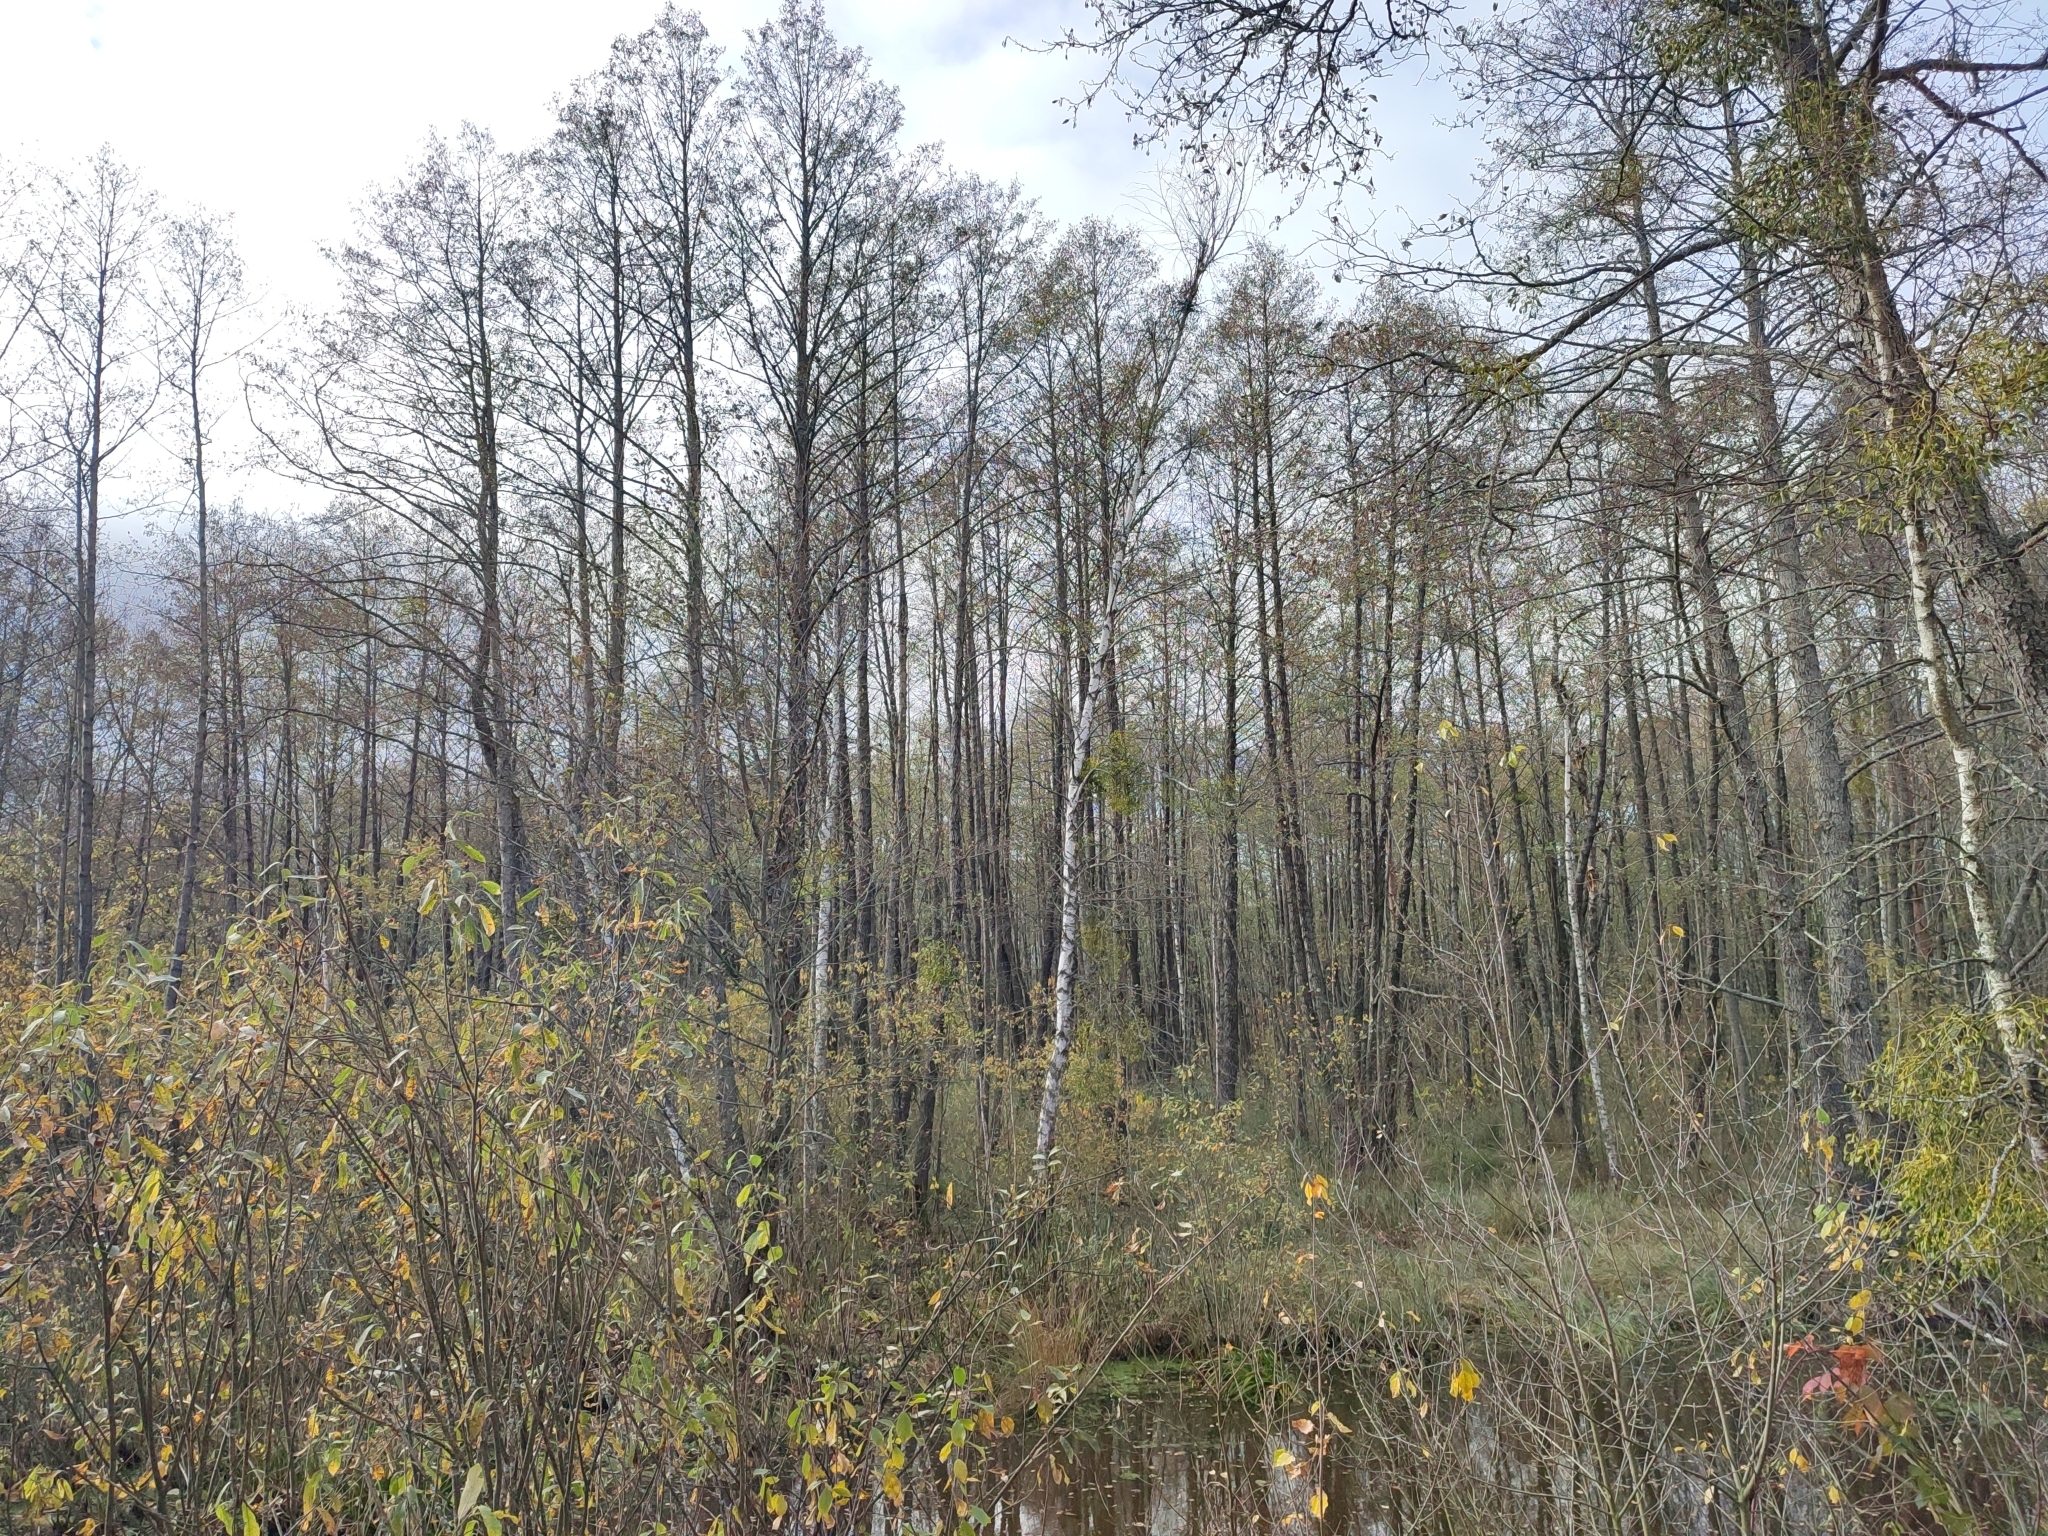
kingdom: Plantae
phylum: Tracheophyta
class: Magnoliopsida
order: Fagales
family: Betulaceae
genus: Alnus
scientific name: Alnus glutinosa
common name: Black alder
